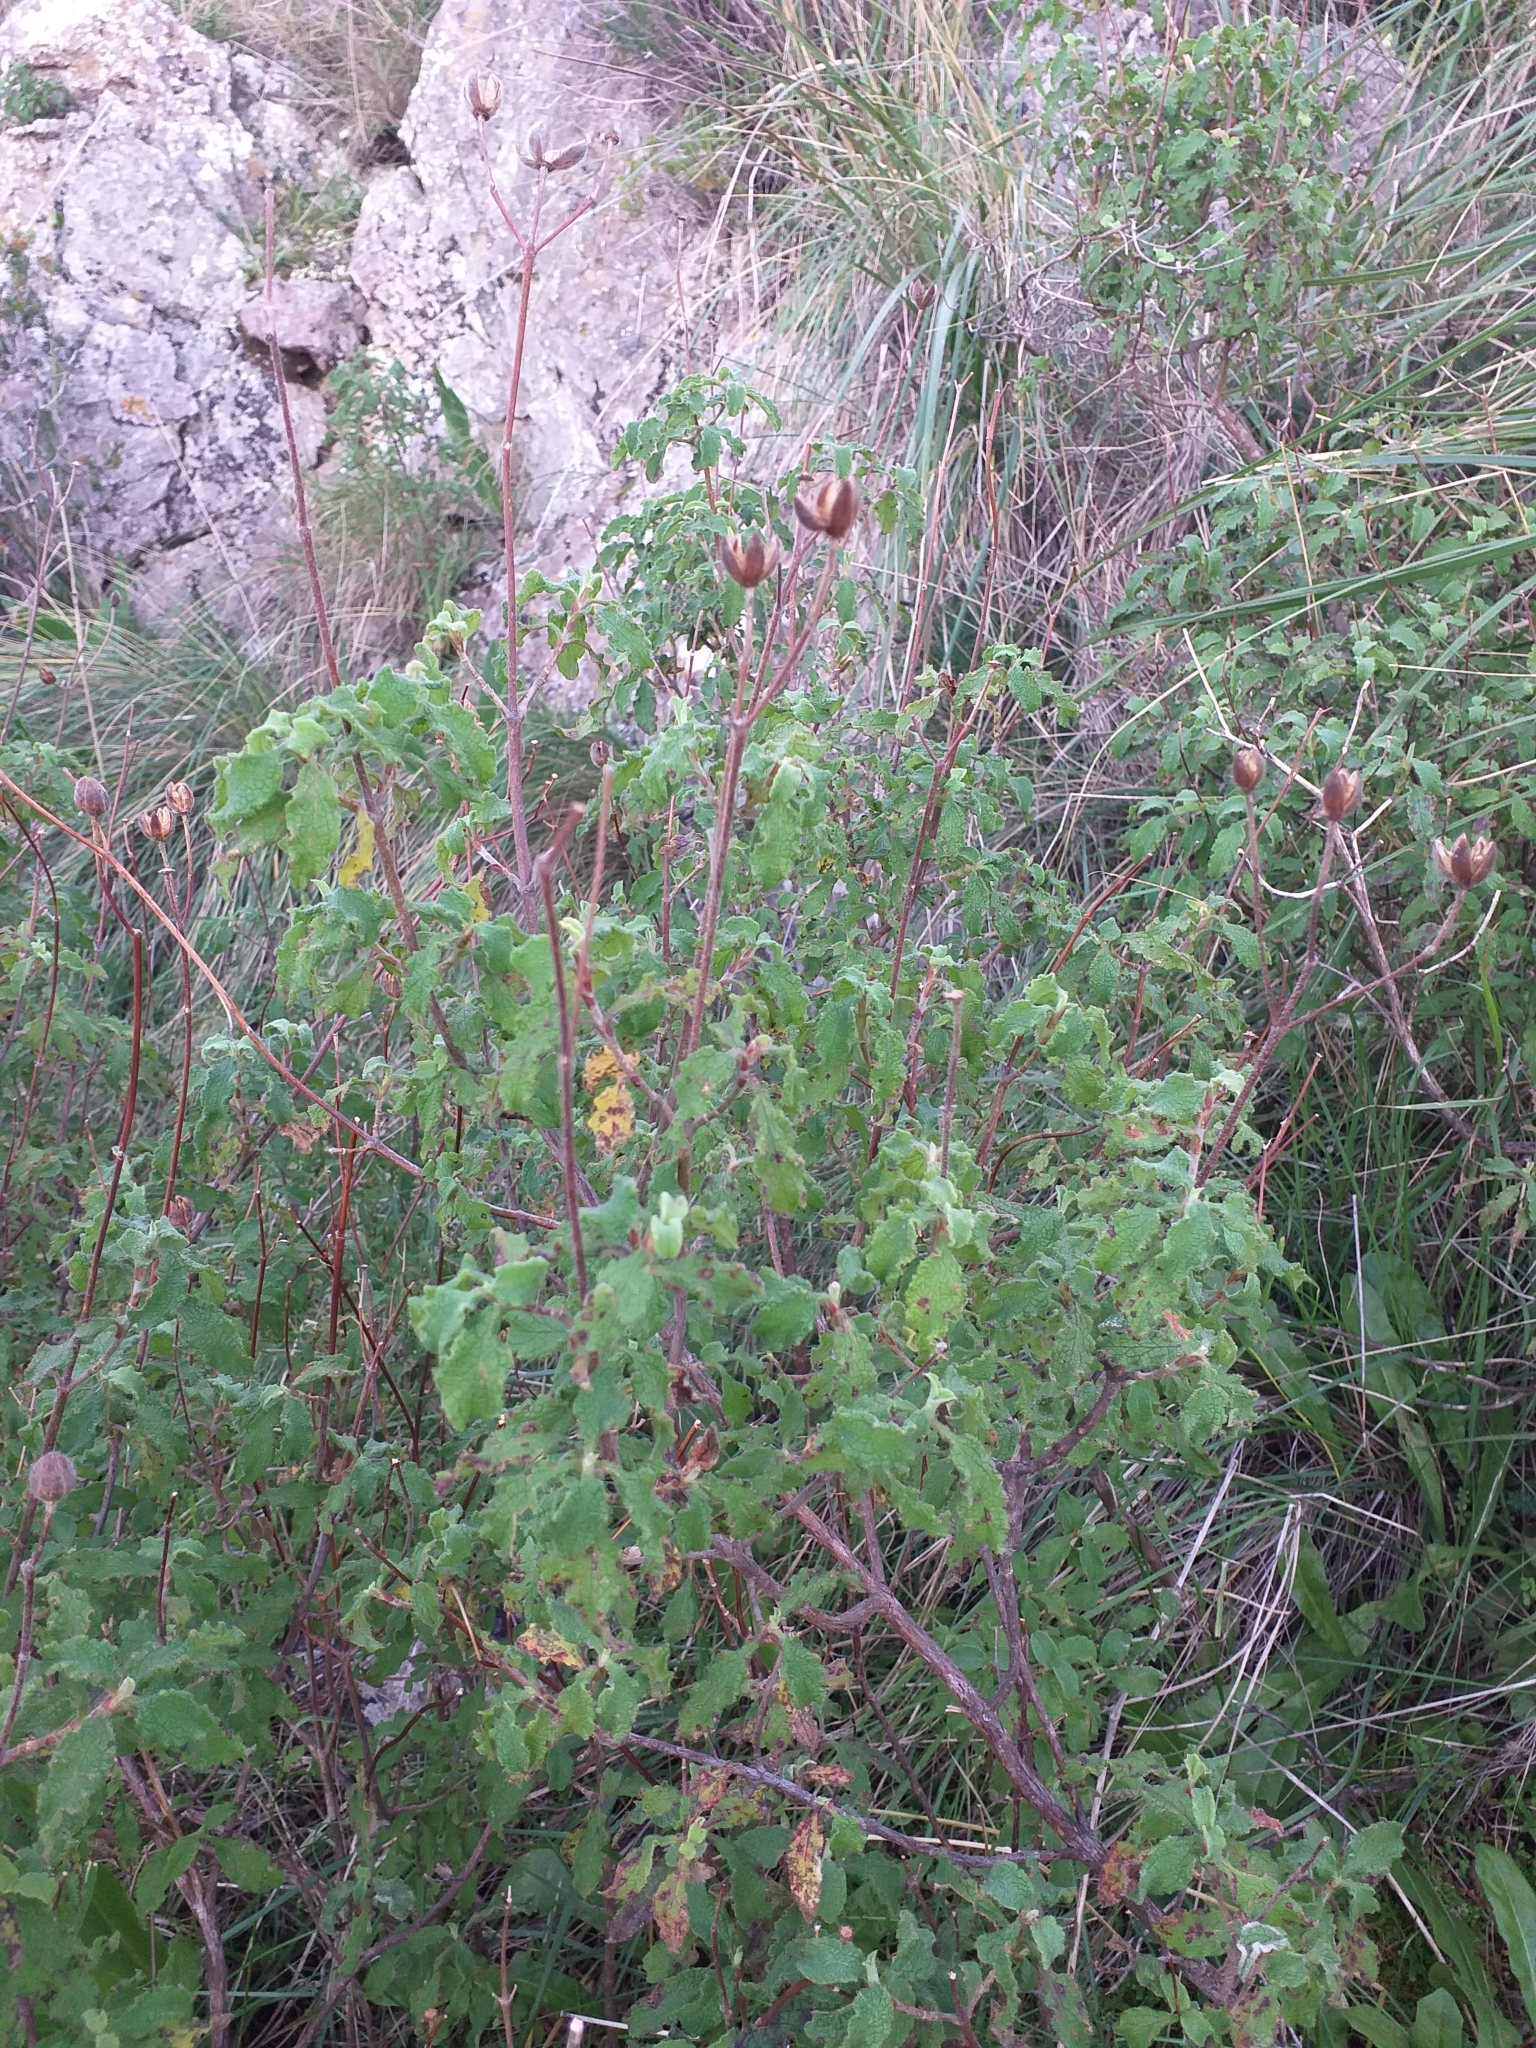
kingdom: Plantae
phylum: Tracheophyta
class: Magnoliopsida
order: Malvales
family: Cistaceae
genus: Cistus
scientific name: Cistus creticus
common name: Cretan rockrose
